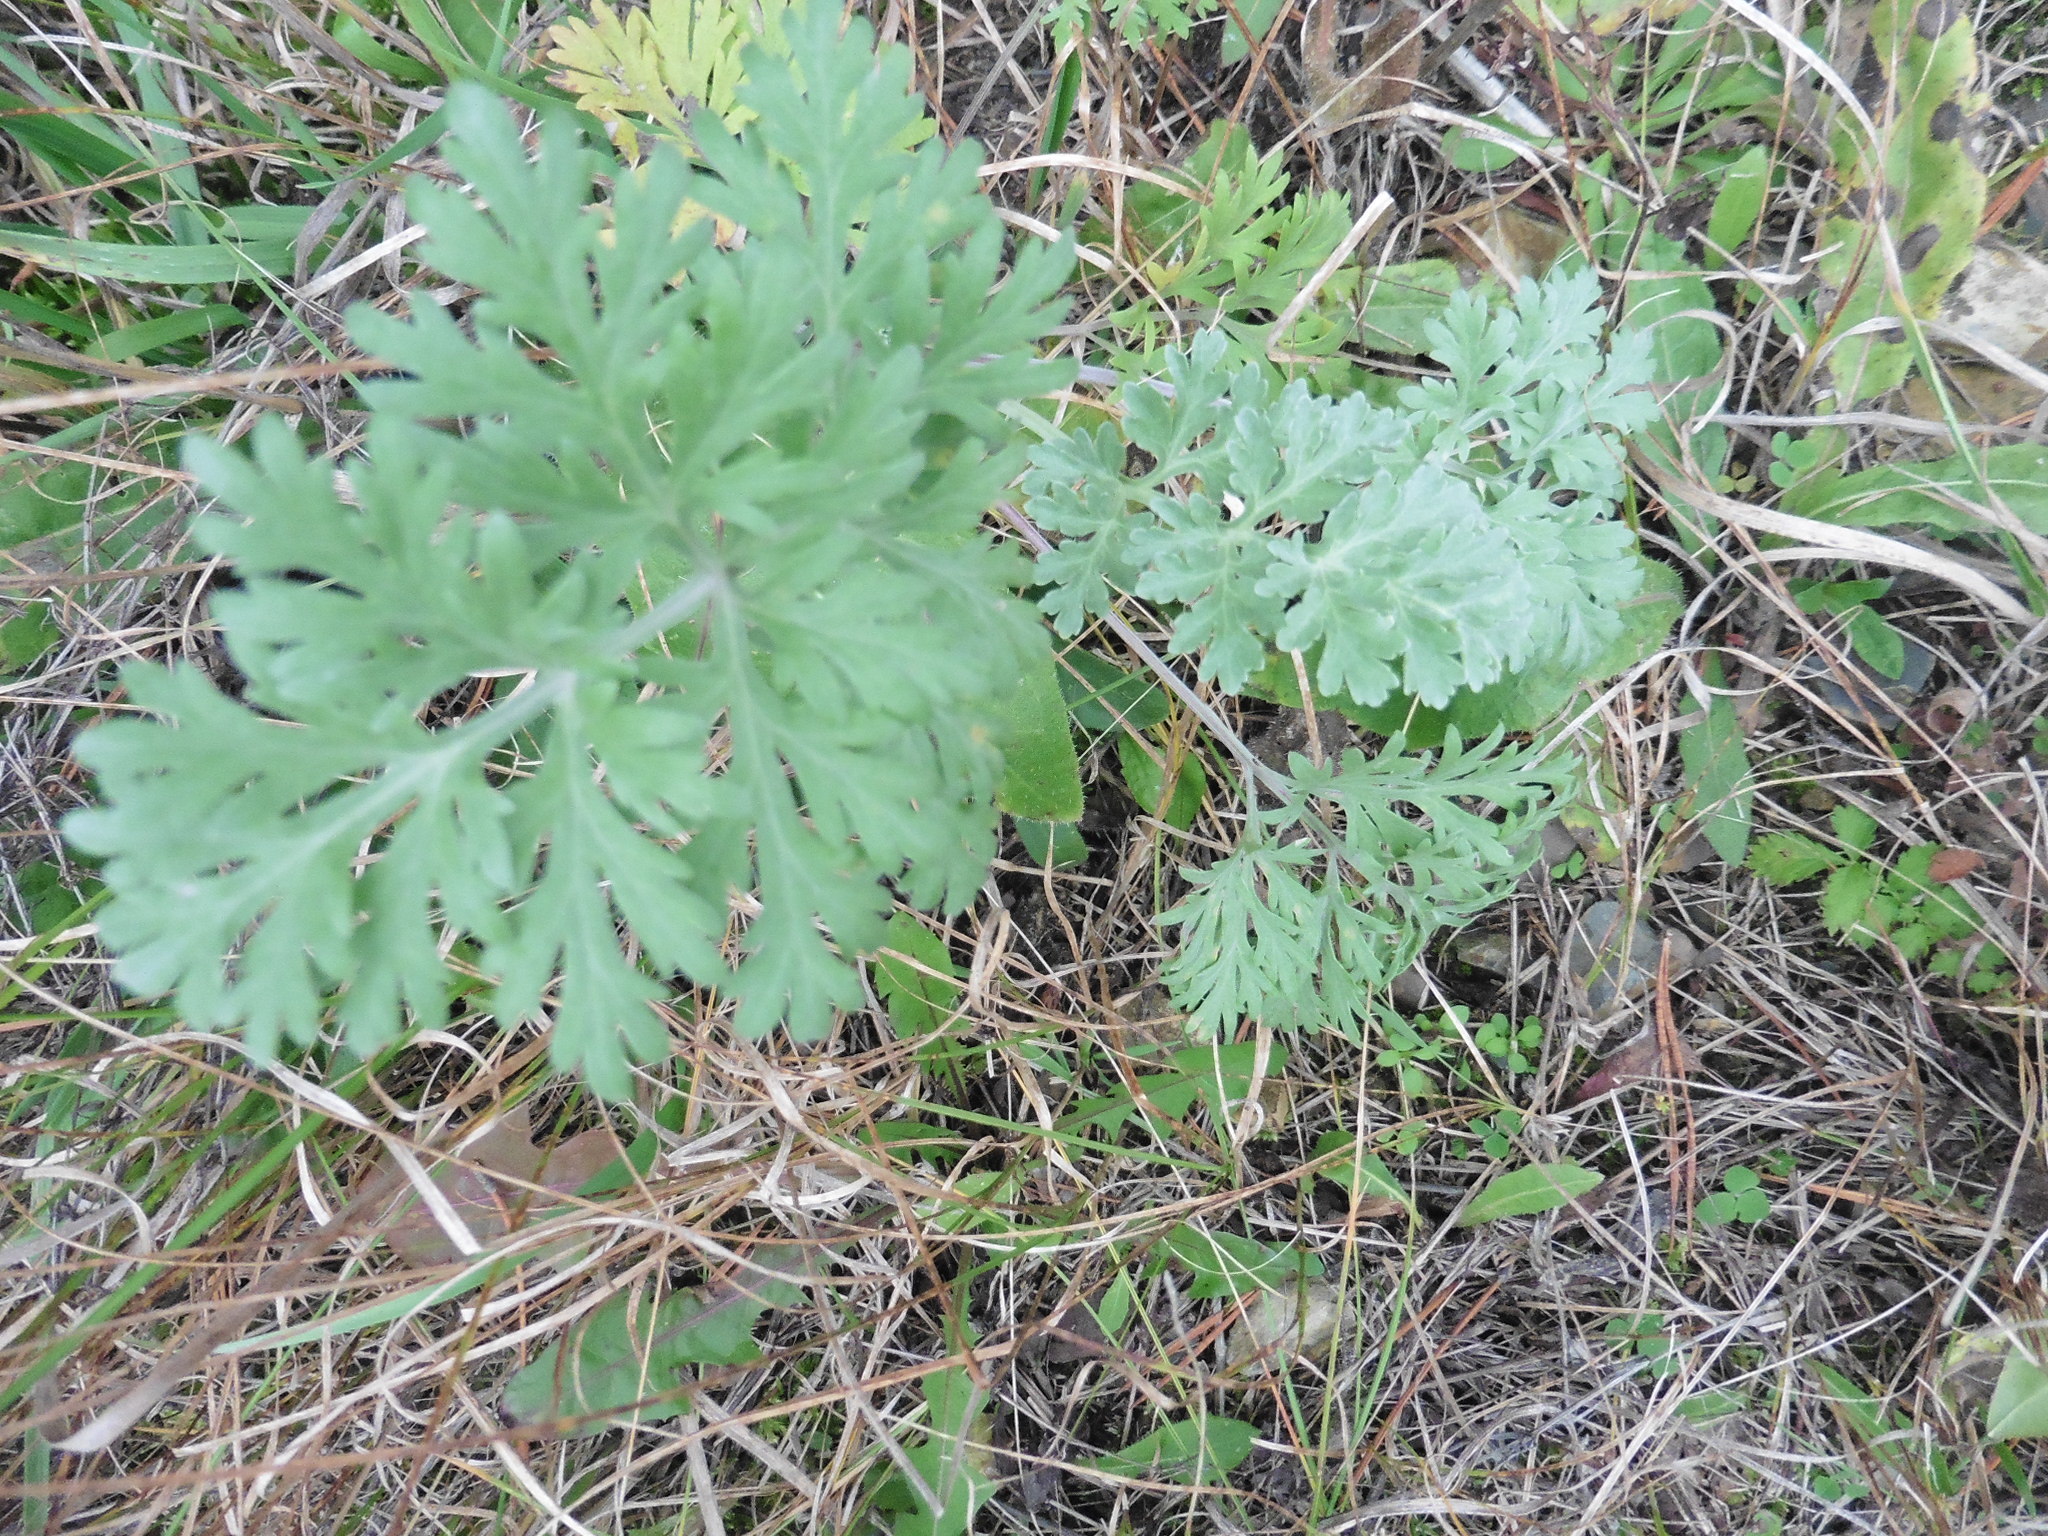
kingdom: Plantae
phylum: Tracheophyta
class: Magnoliopsida
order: Asterales
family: Asteraceae
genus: Artemisia
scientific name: Artemisia absinthium
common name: Wormwood
